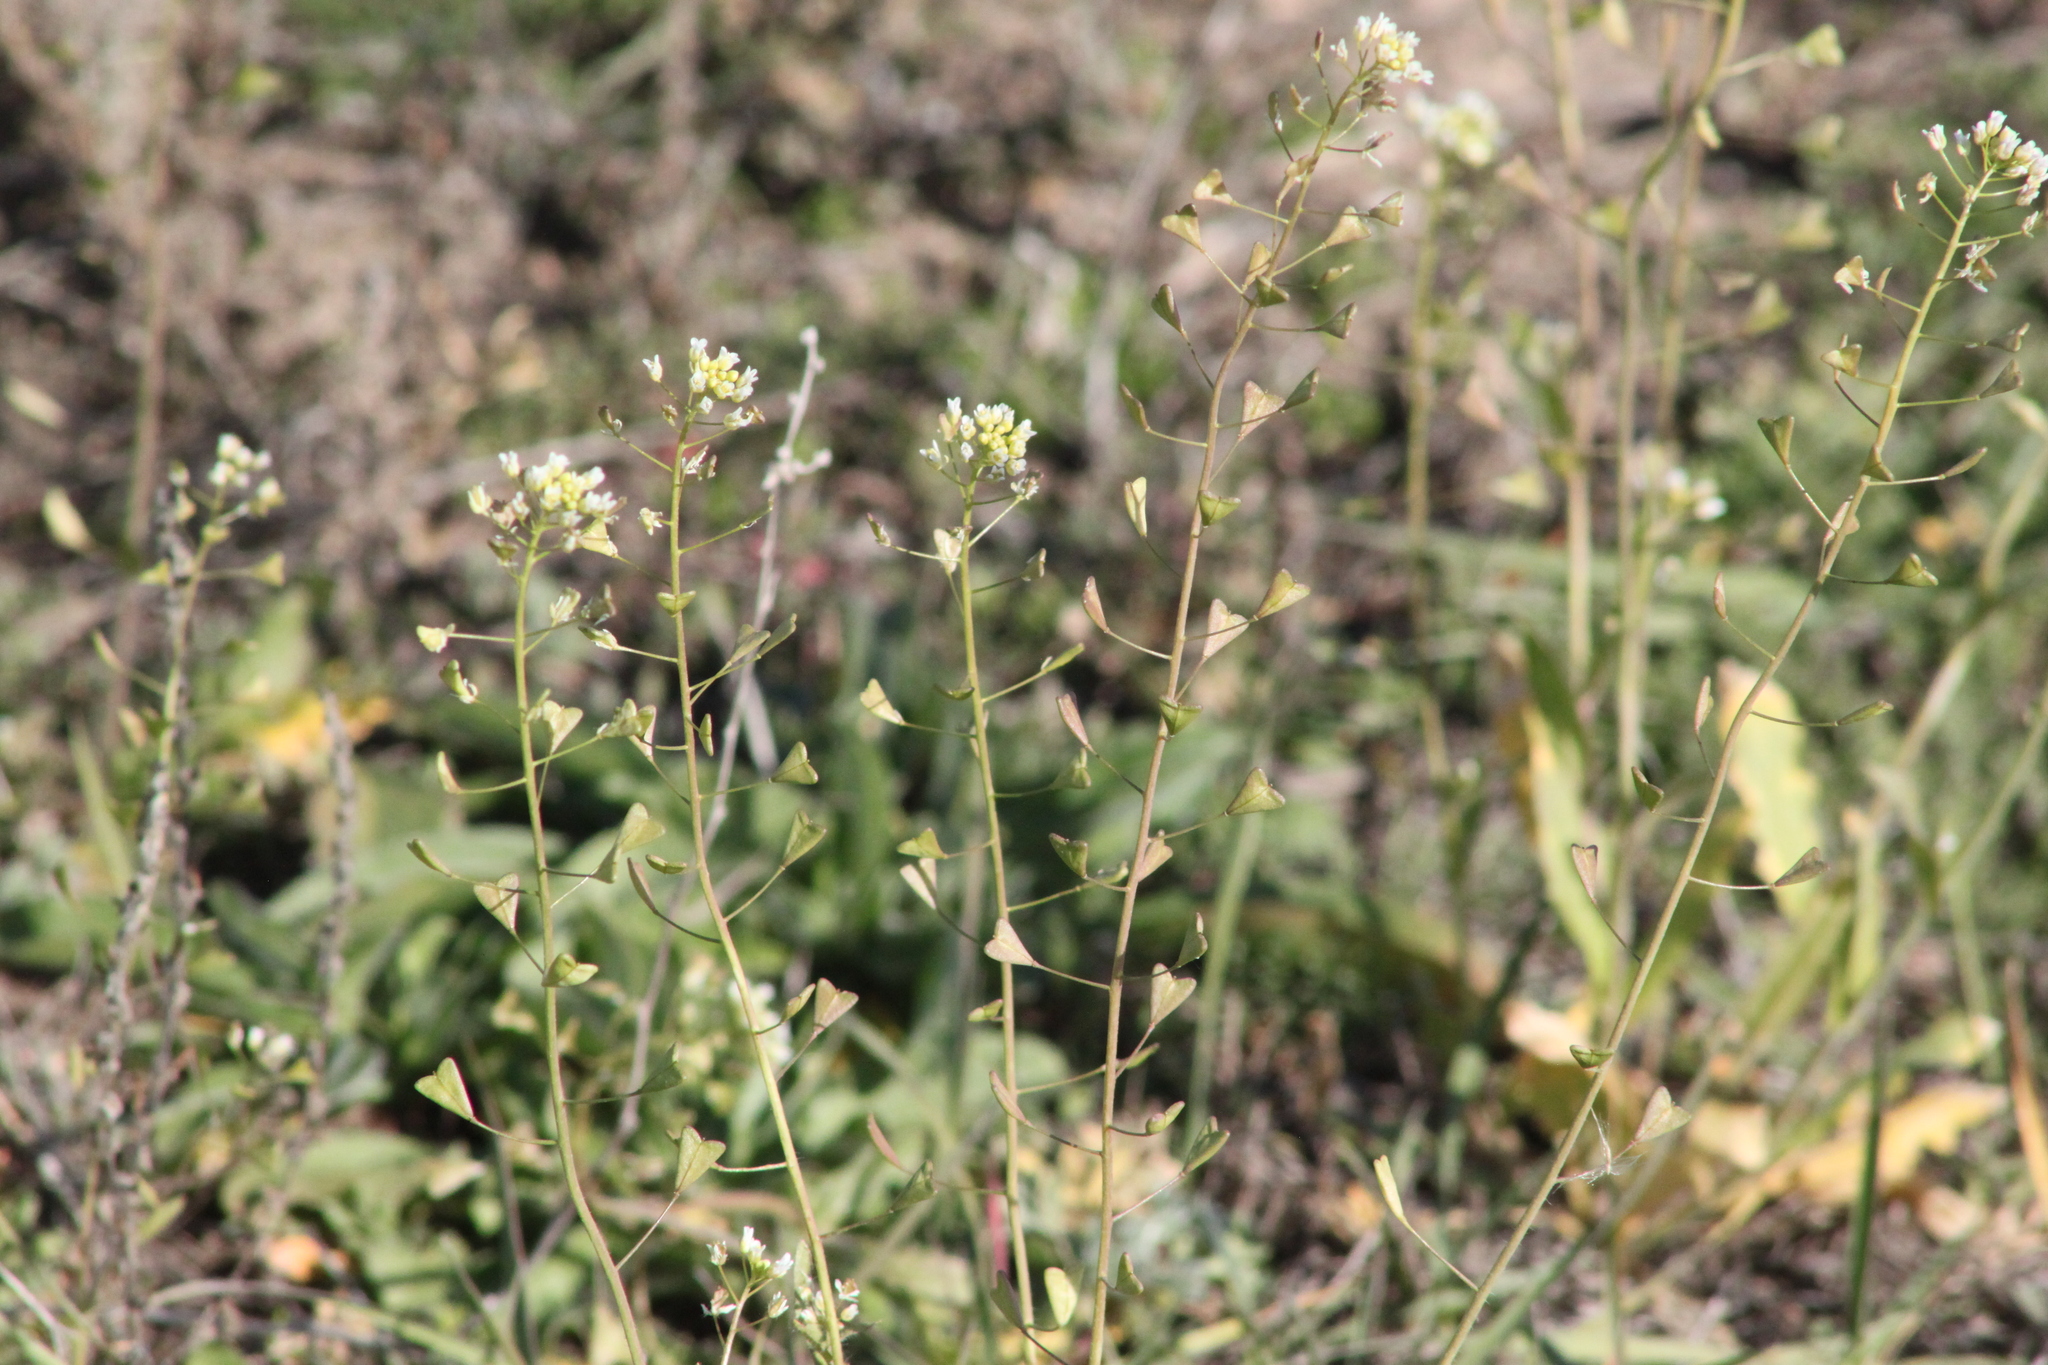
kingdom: Plantae
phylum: Tracheophyta
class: Magnoliopsida
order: Brassicales
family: Brassicaceae
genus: Capsella
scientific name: Capsella bursa-pastoris
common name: Shepherd's purse
